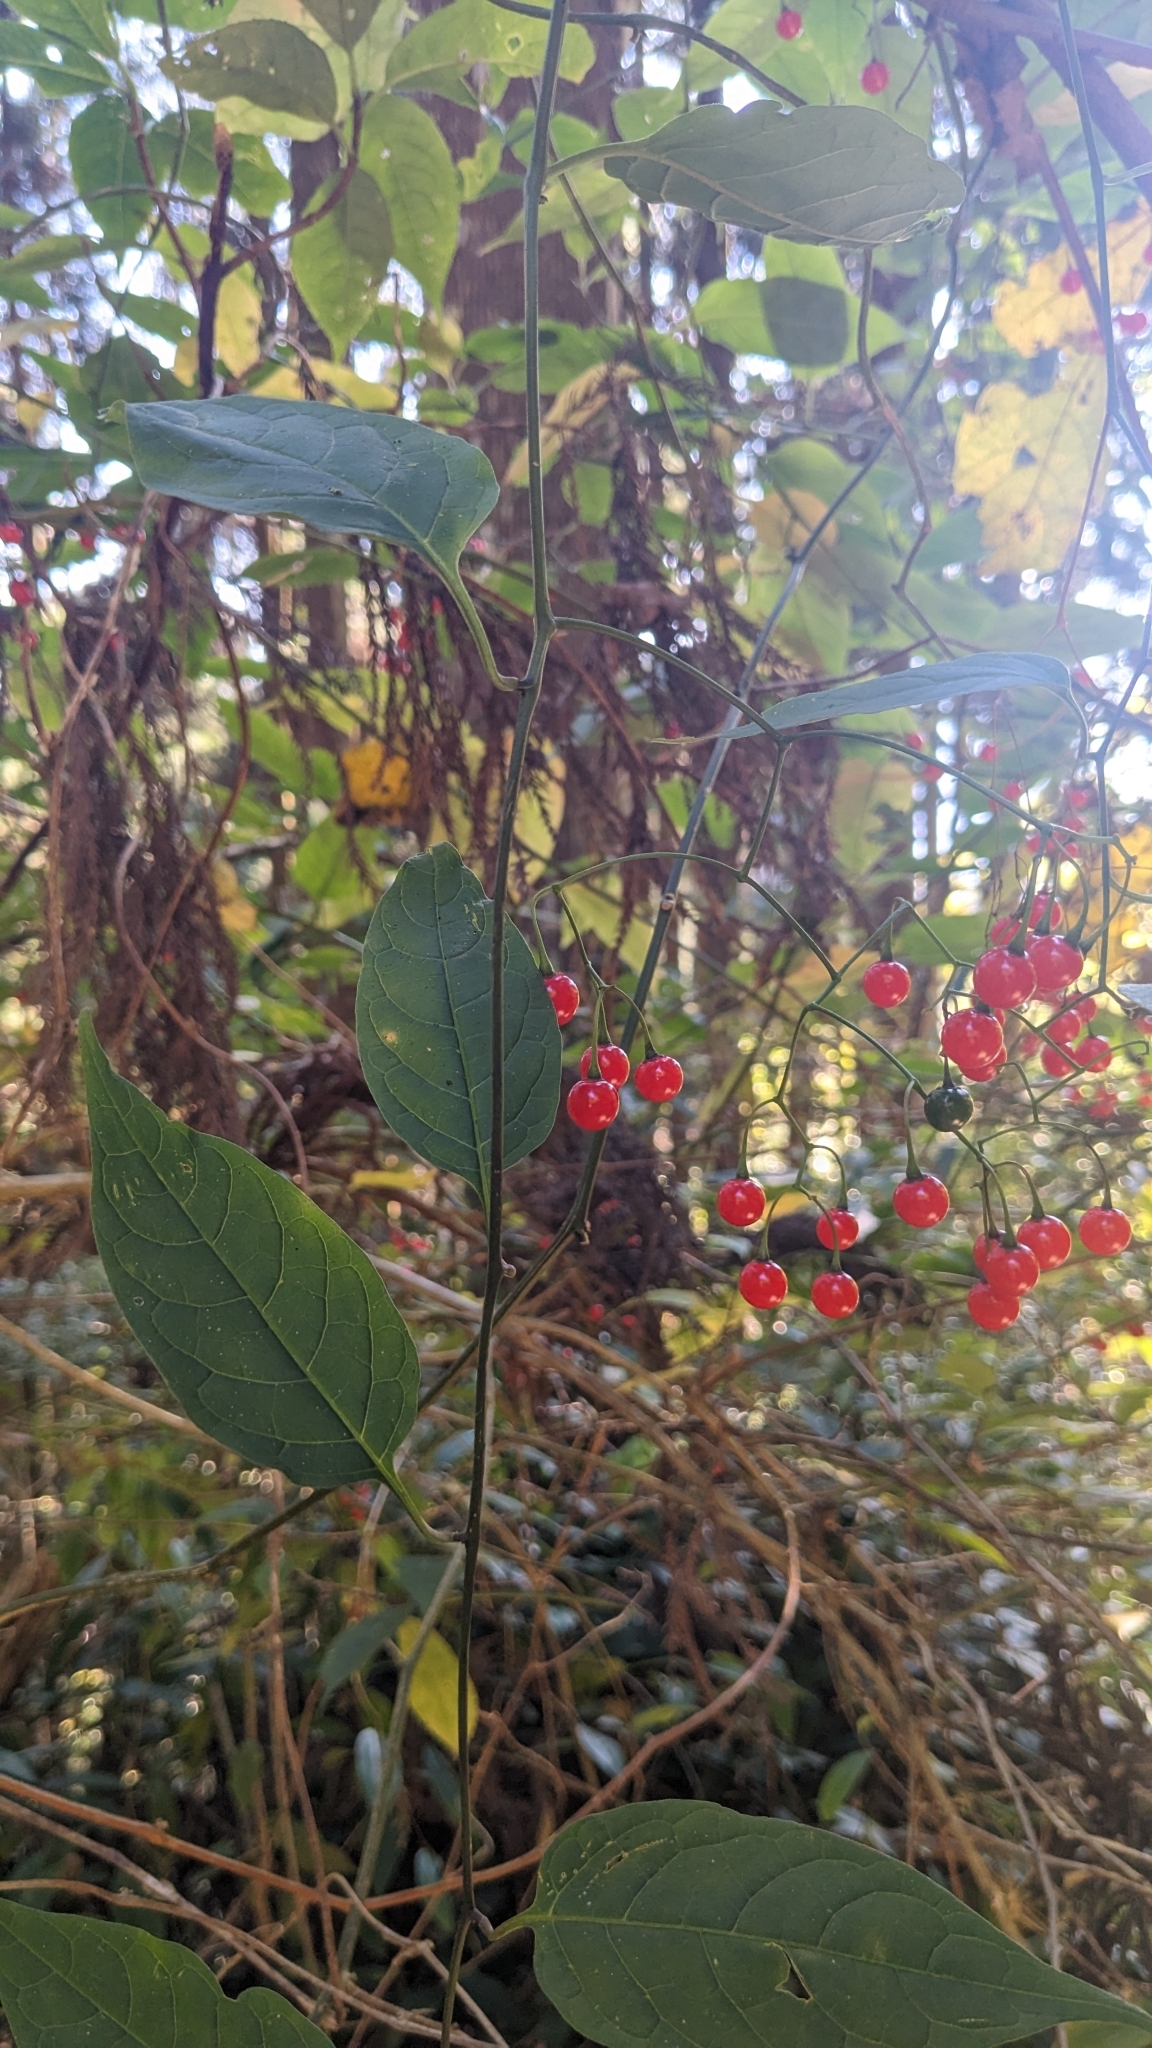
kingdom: Plantae
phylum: Tracheophyta
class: Magnoliopsida
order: Solanales
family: Solanaceae
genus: Solanum
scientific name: Solanum pittosporifolium
